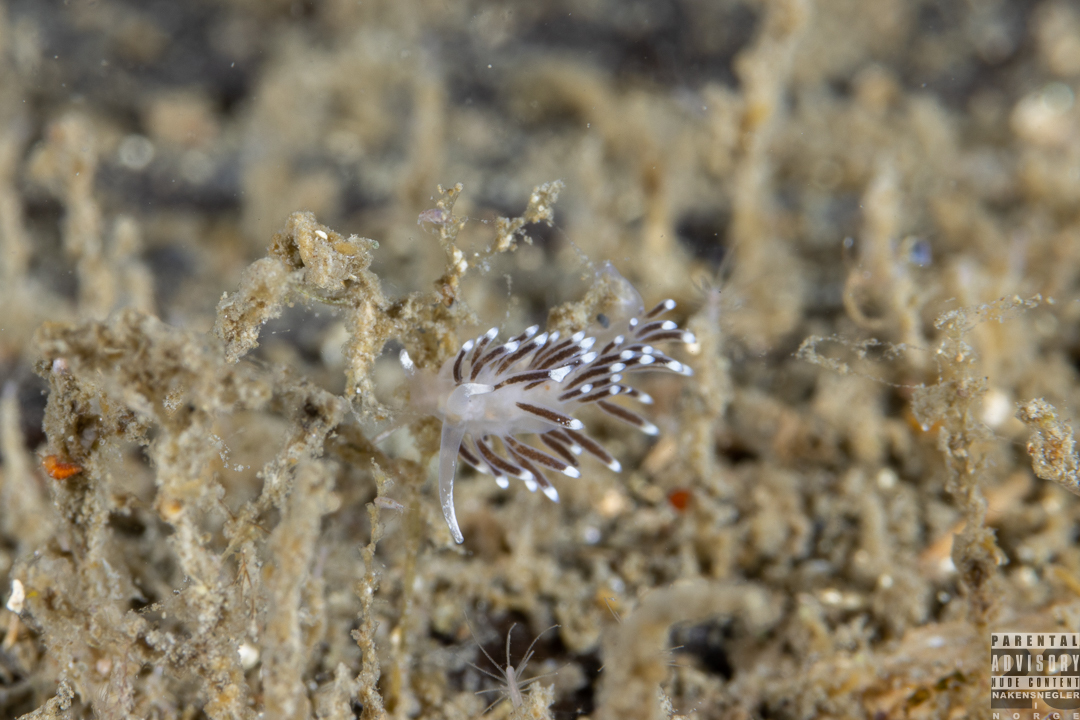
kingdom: Animalia
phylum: Mollusca
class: Gastropoda
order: Nudibranchia
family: Cuthonellidae
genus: Cuthonella
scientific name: Cuthonella concinna
